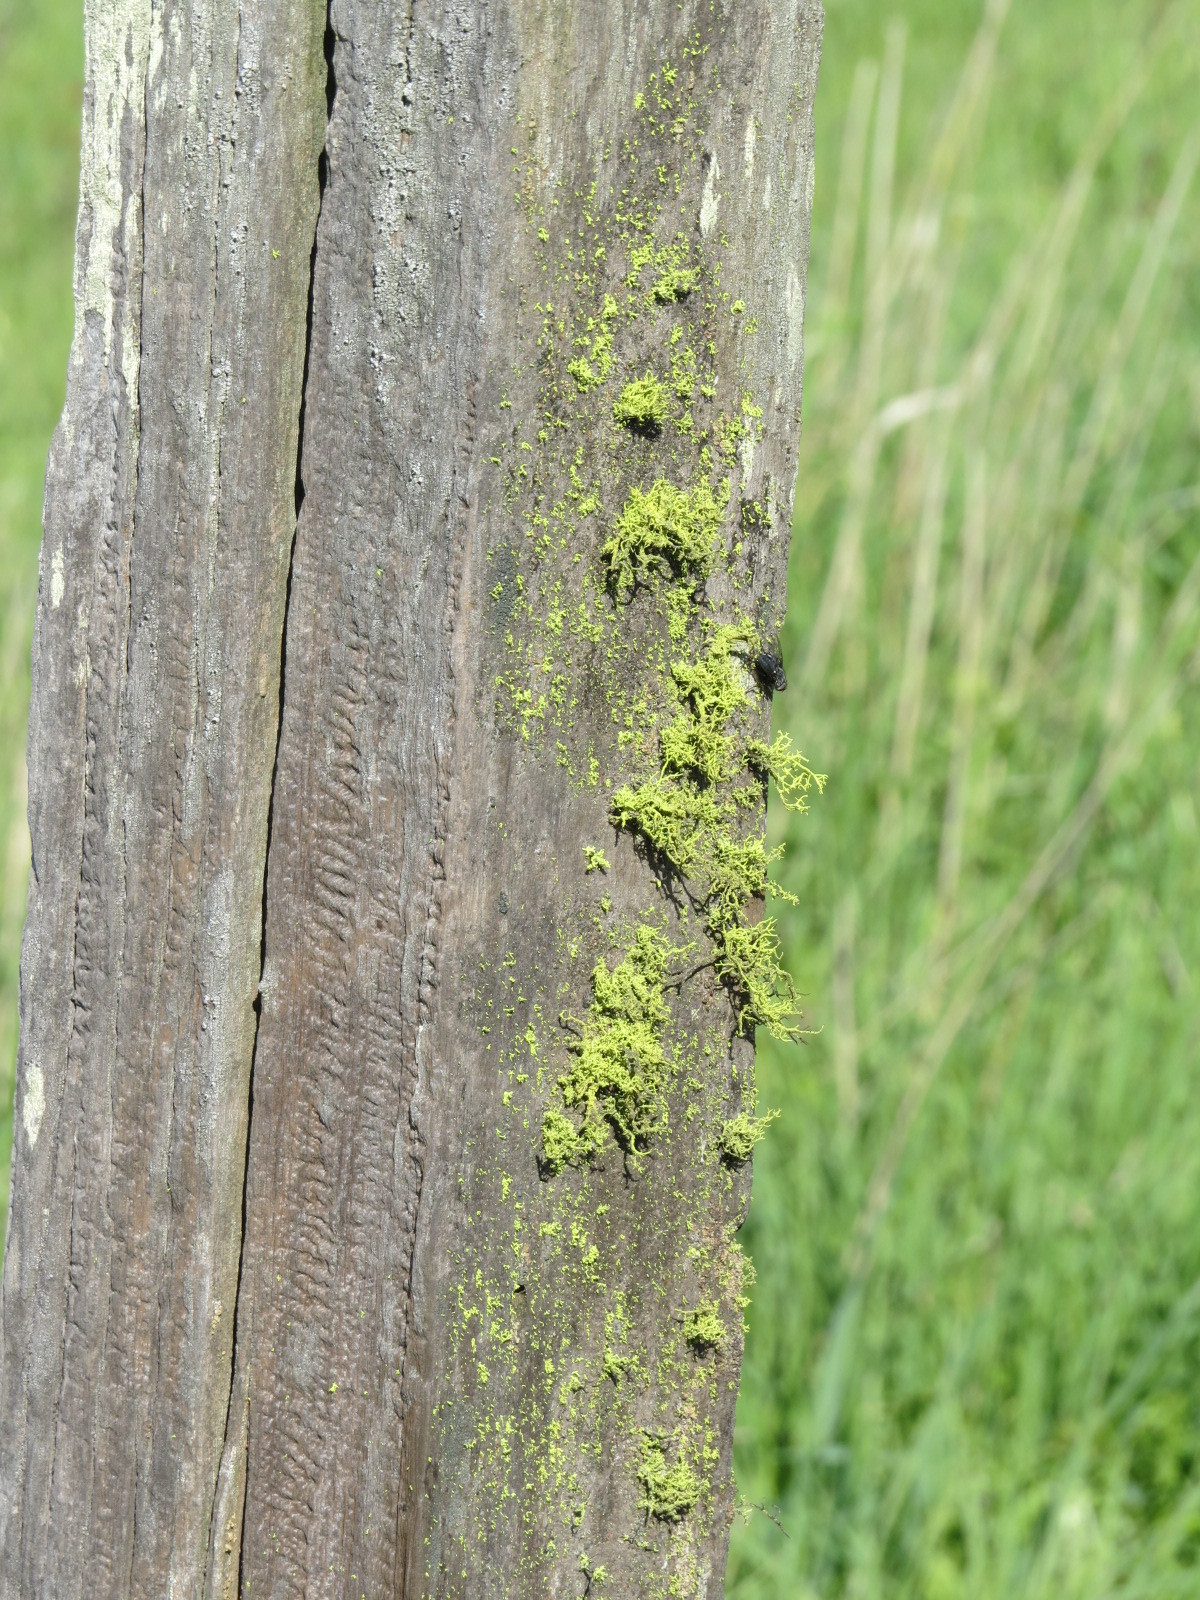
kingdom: Fungi
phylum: Ascomycota
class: Lecanoromycetes
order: Lecanorales
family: Parmeliaceae
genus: Letharia
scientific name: Letharia vulpina
